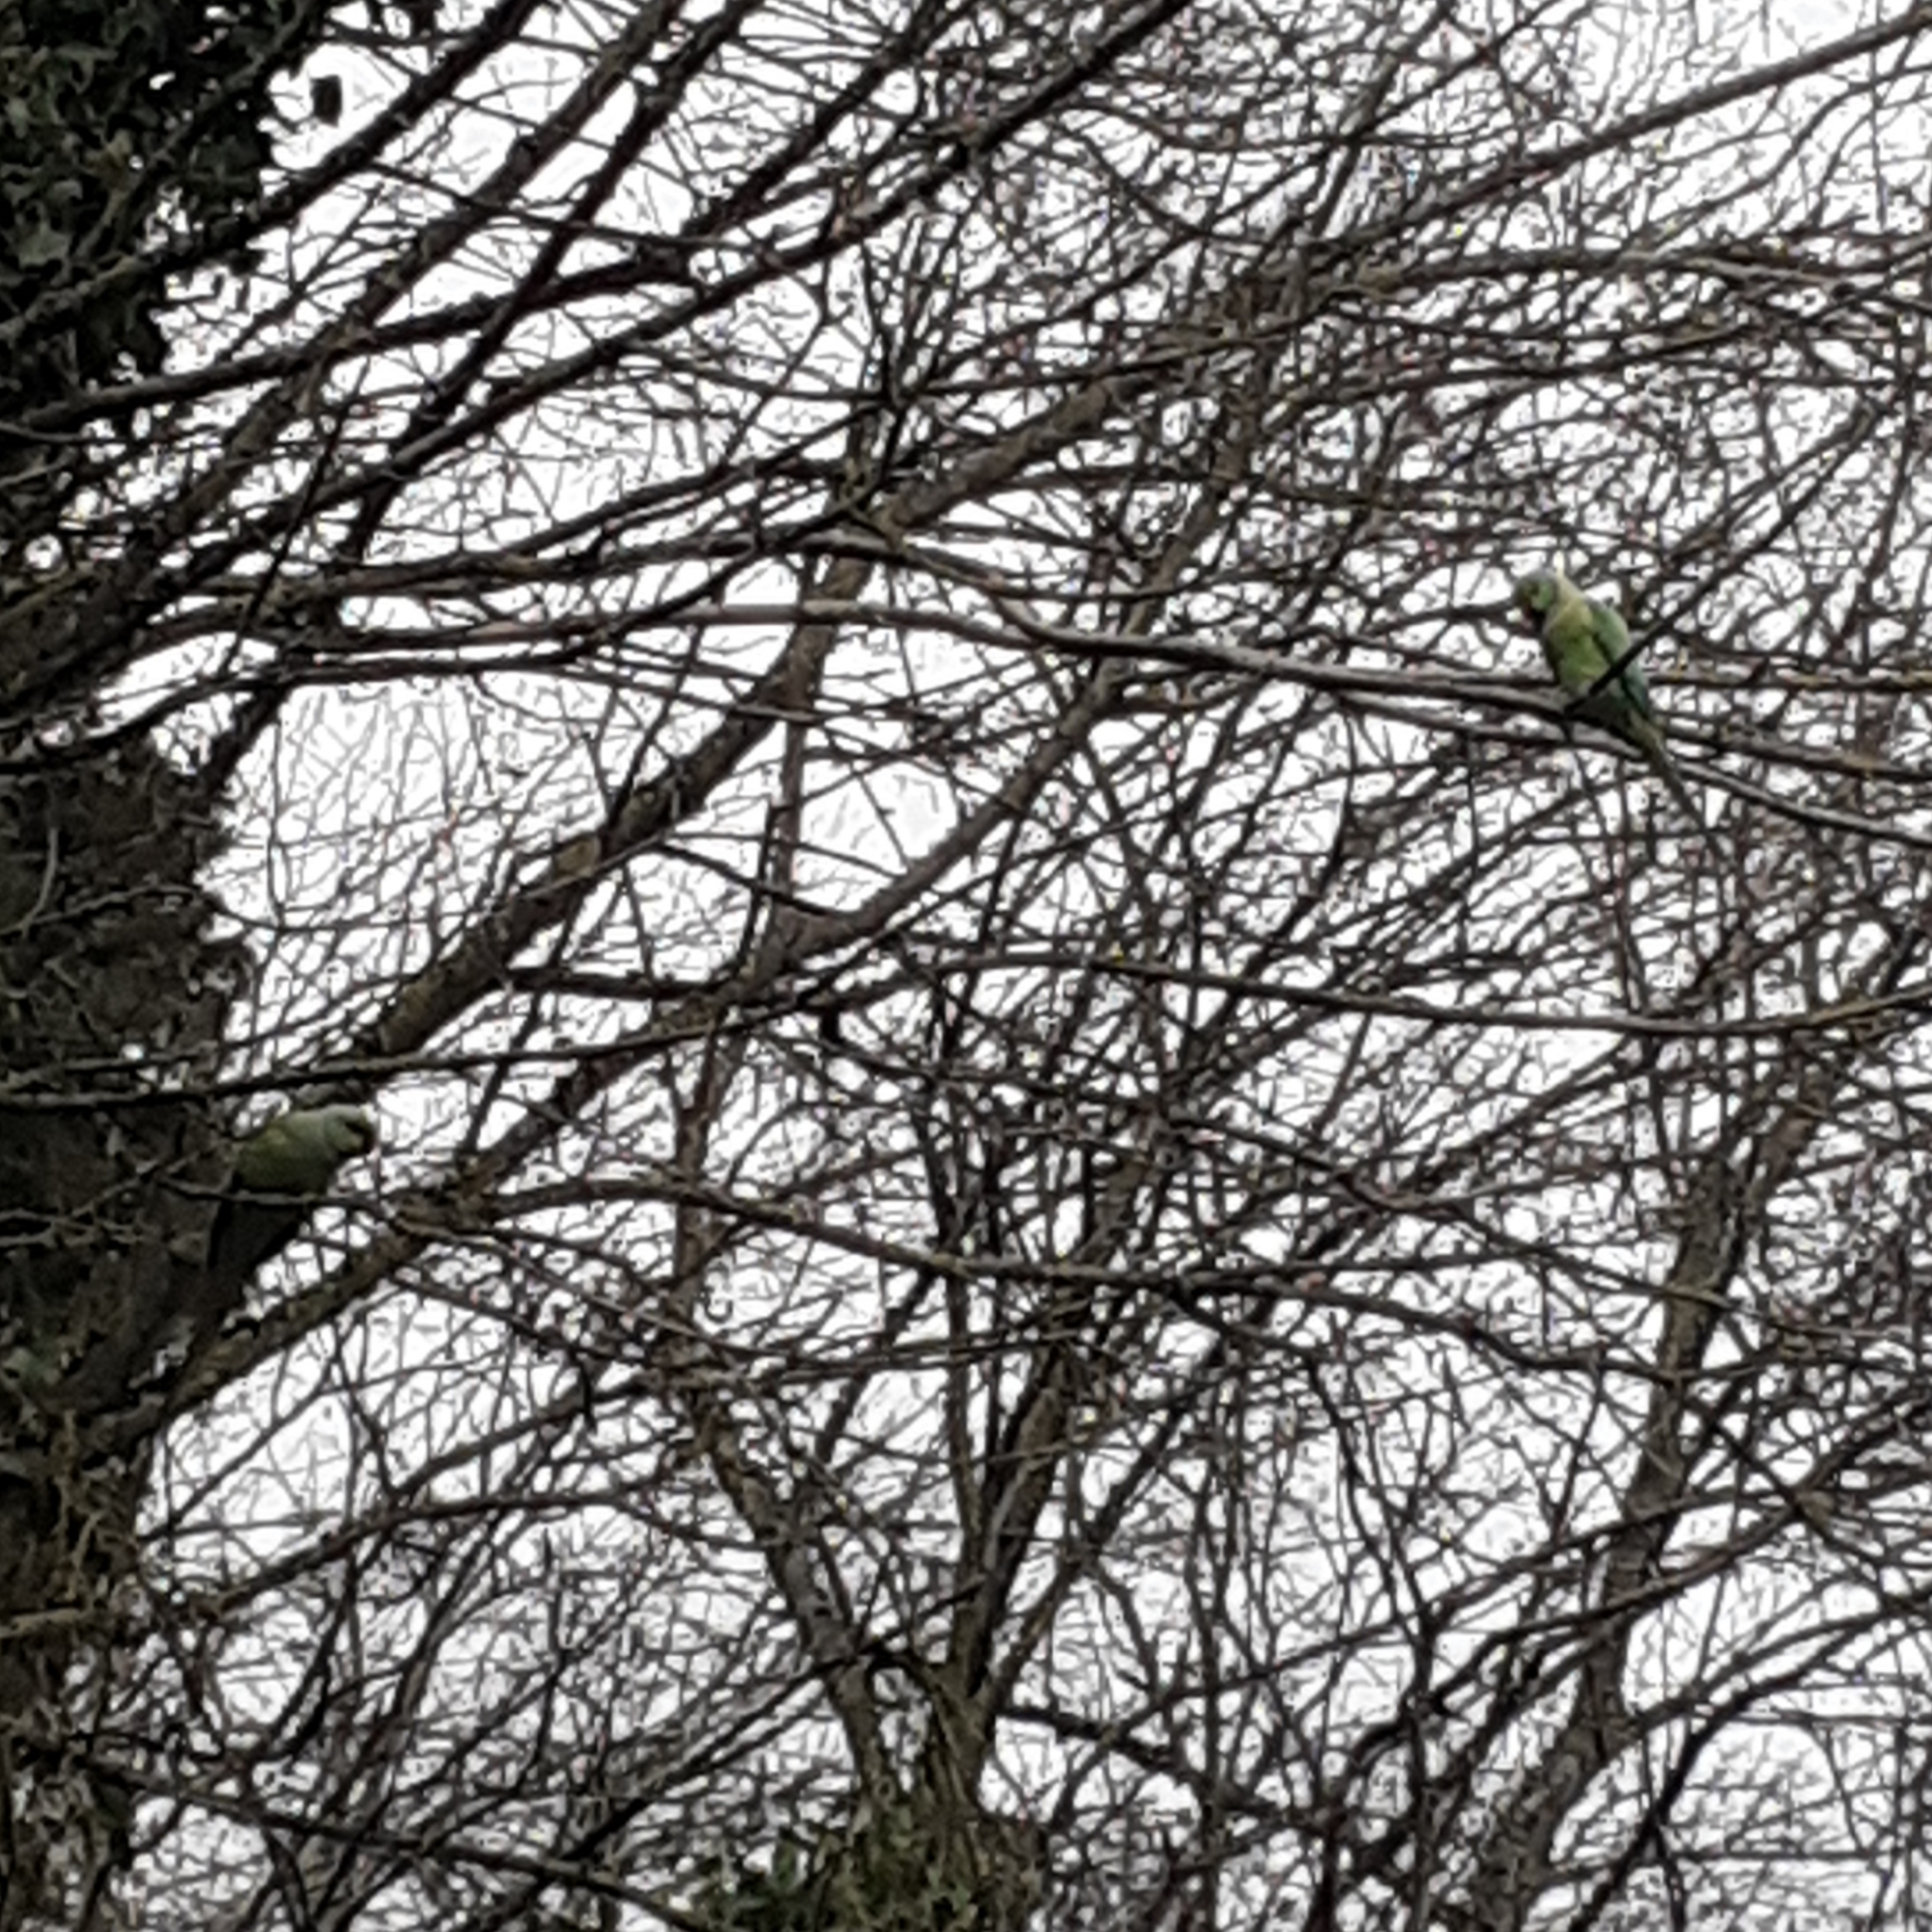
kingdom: Animalia
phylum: Chordata
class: Aves
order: Psittaciformes
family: Psittacidae
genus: Psittacula
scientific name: Psittacula krameri
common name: Rose-ringed parakeet
